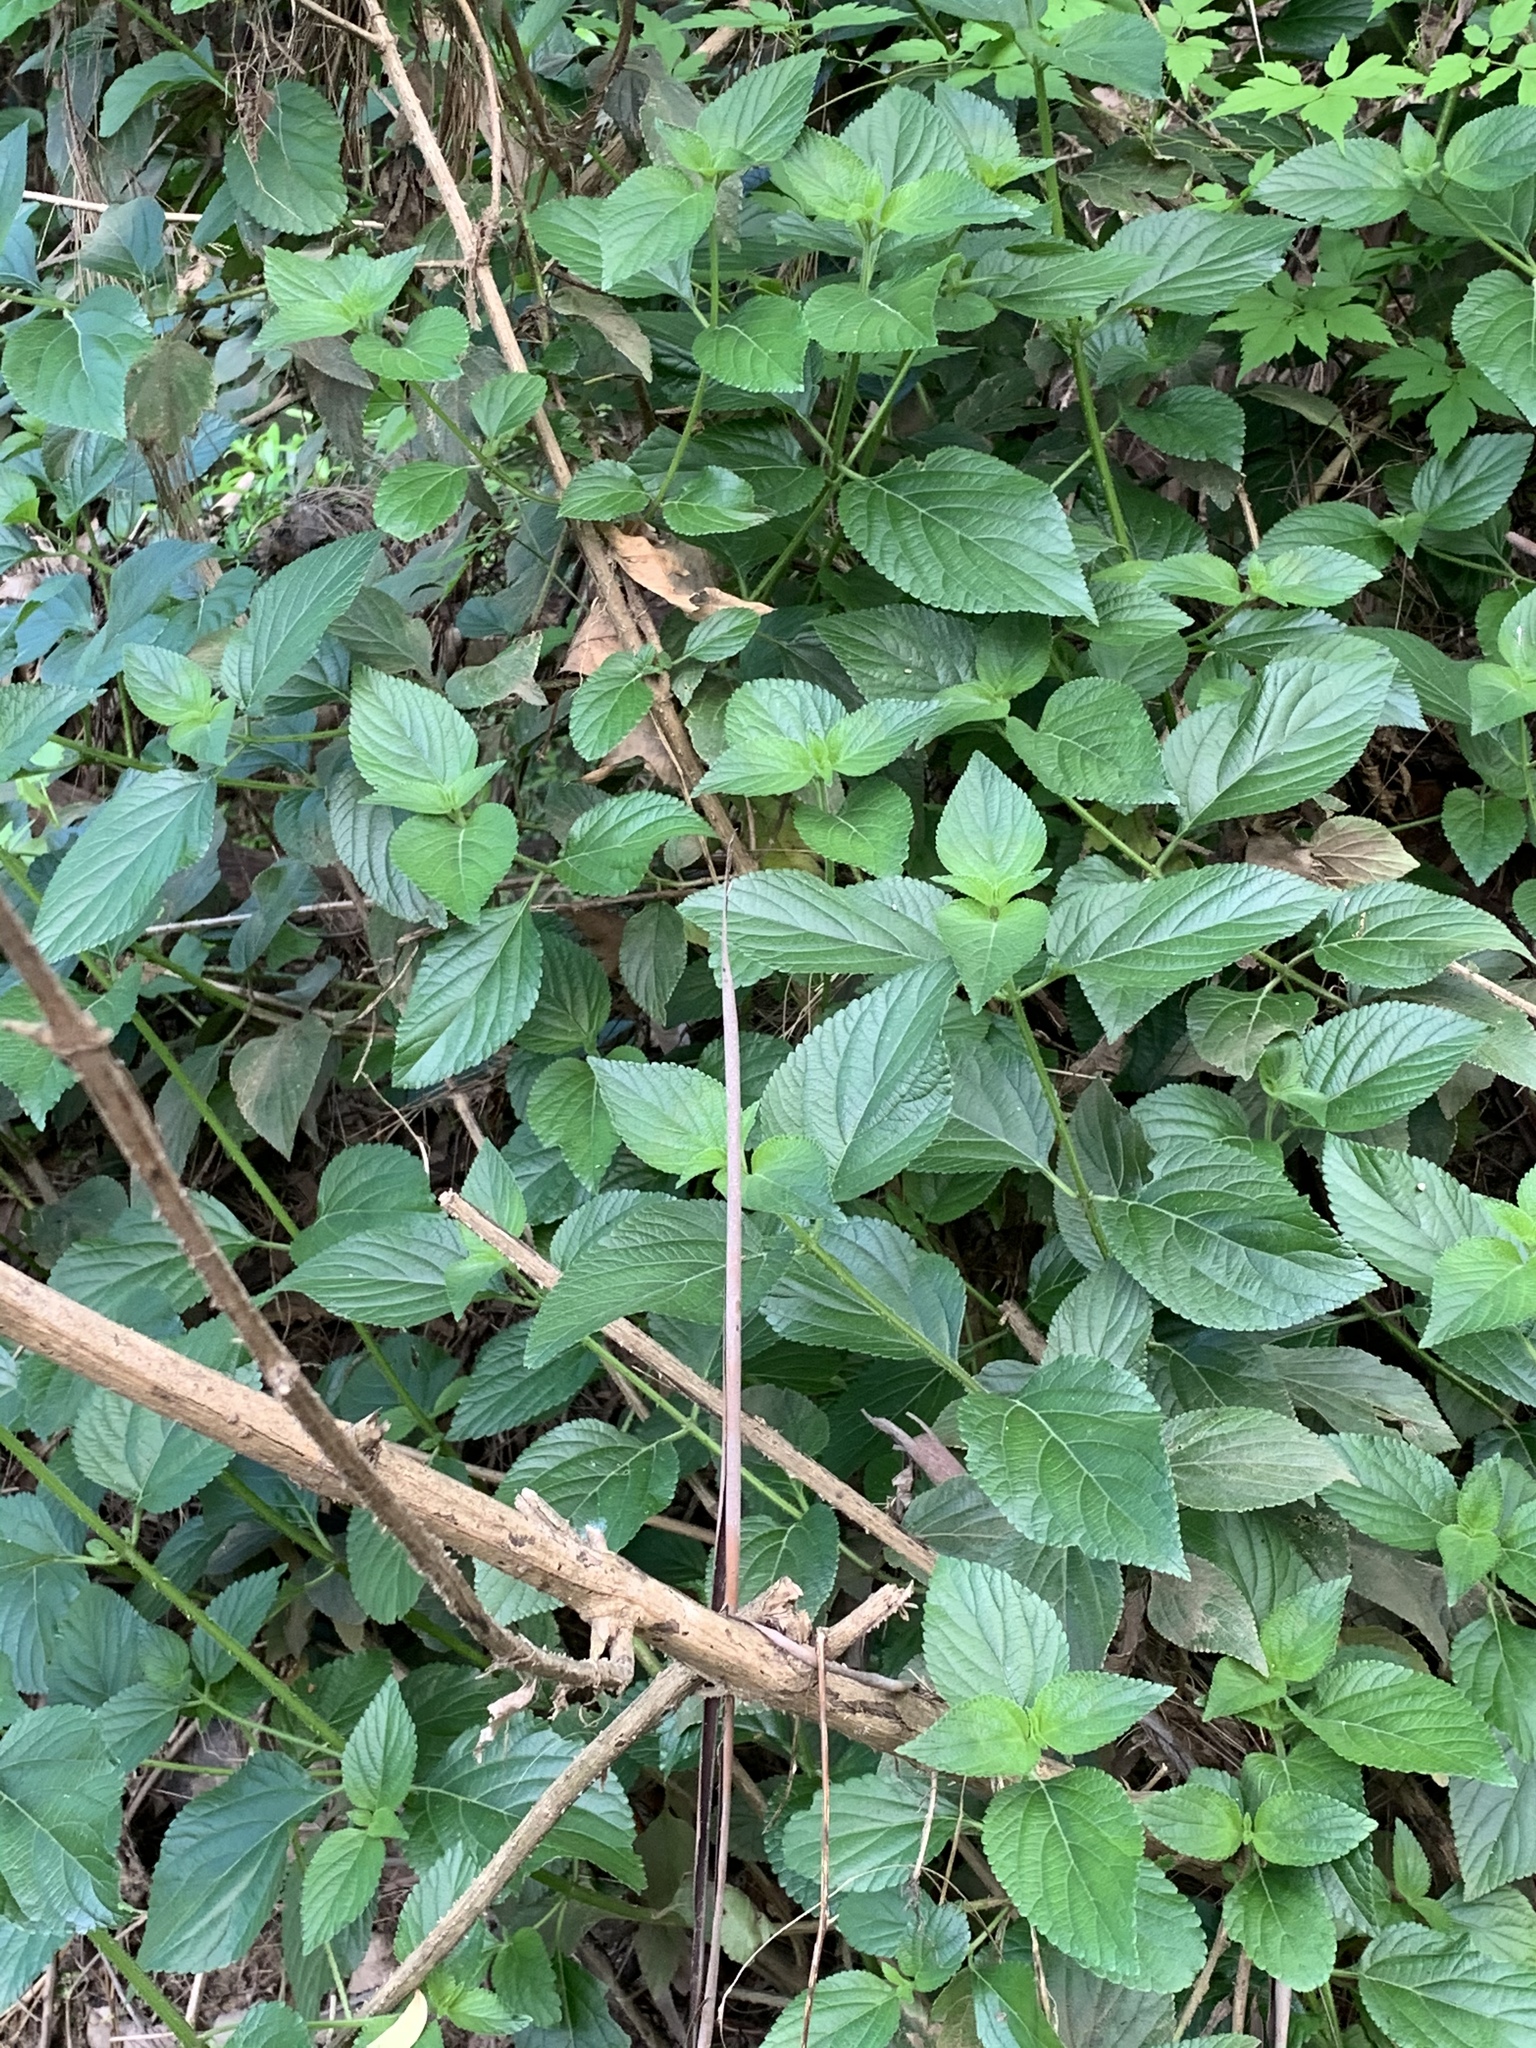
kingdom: Plantae
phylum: Tracheophyta
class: Magnoliopsida
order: Lamiales
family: Verbenaceae
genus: Lantana
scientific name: Lantana camara
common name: Lantana
